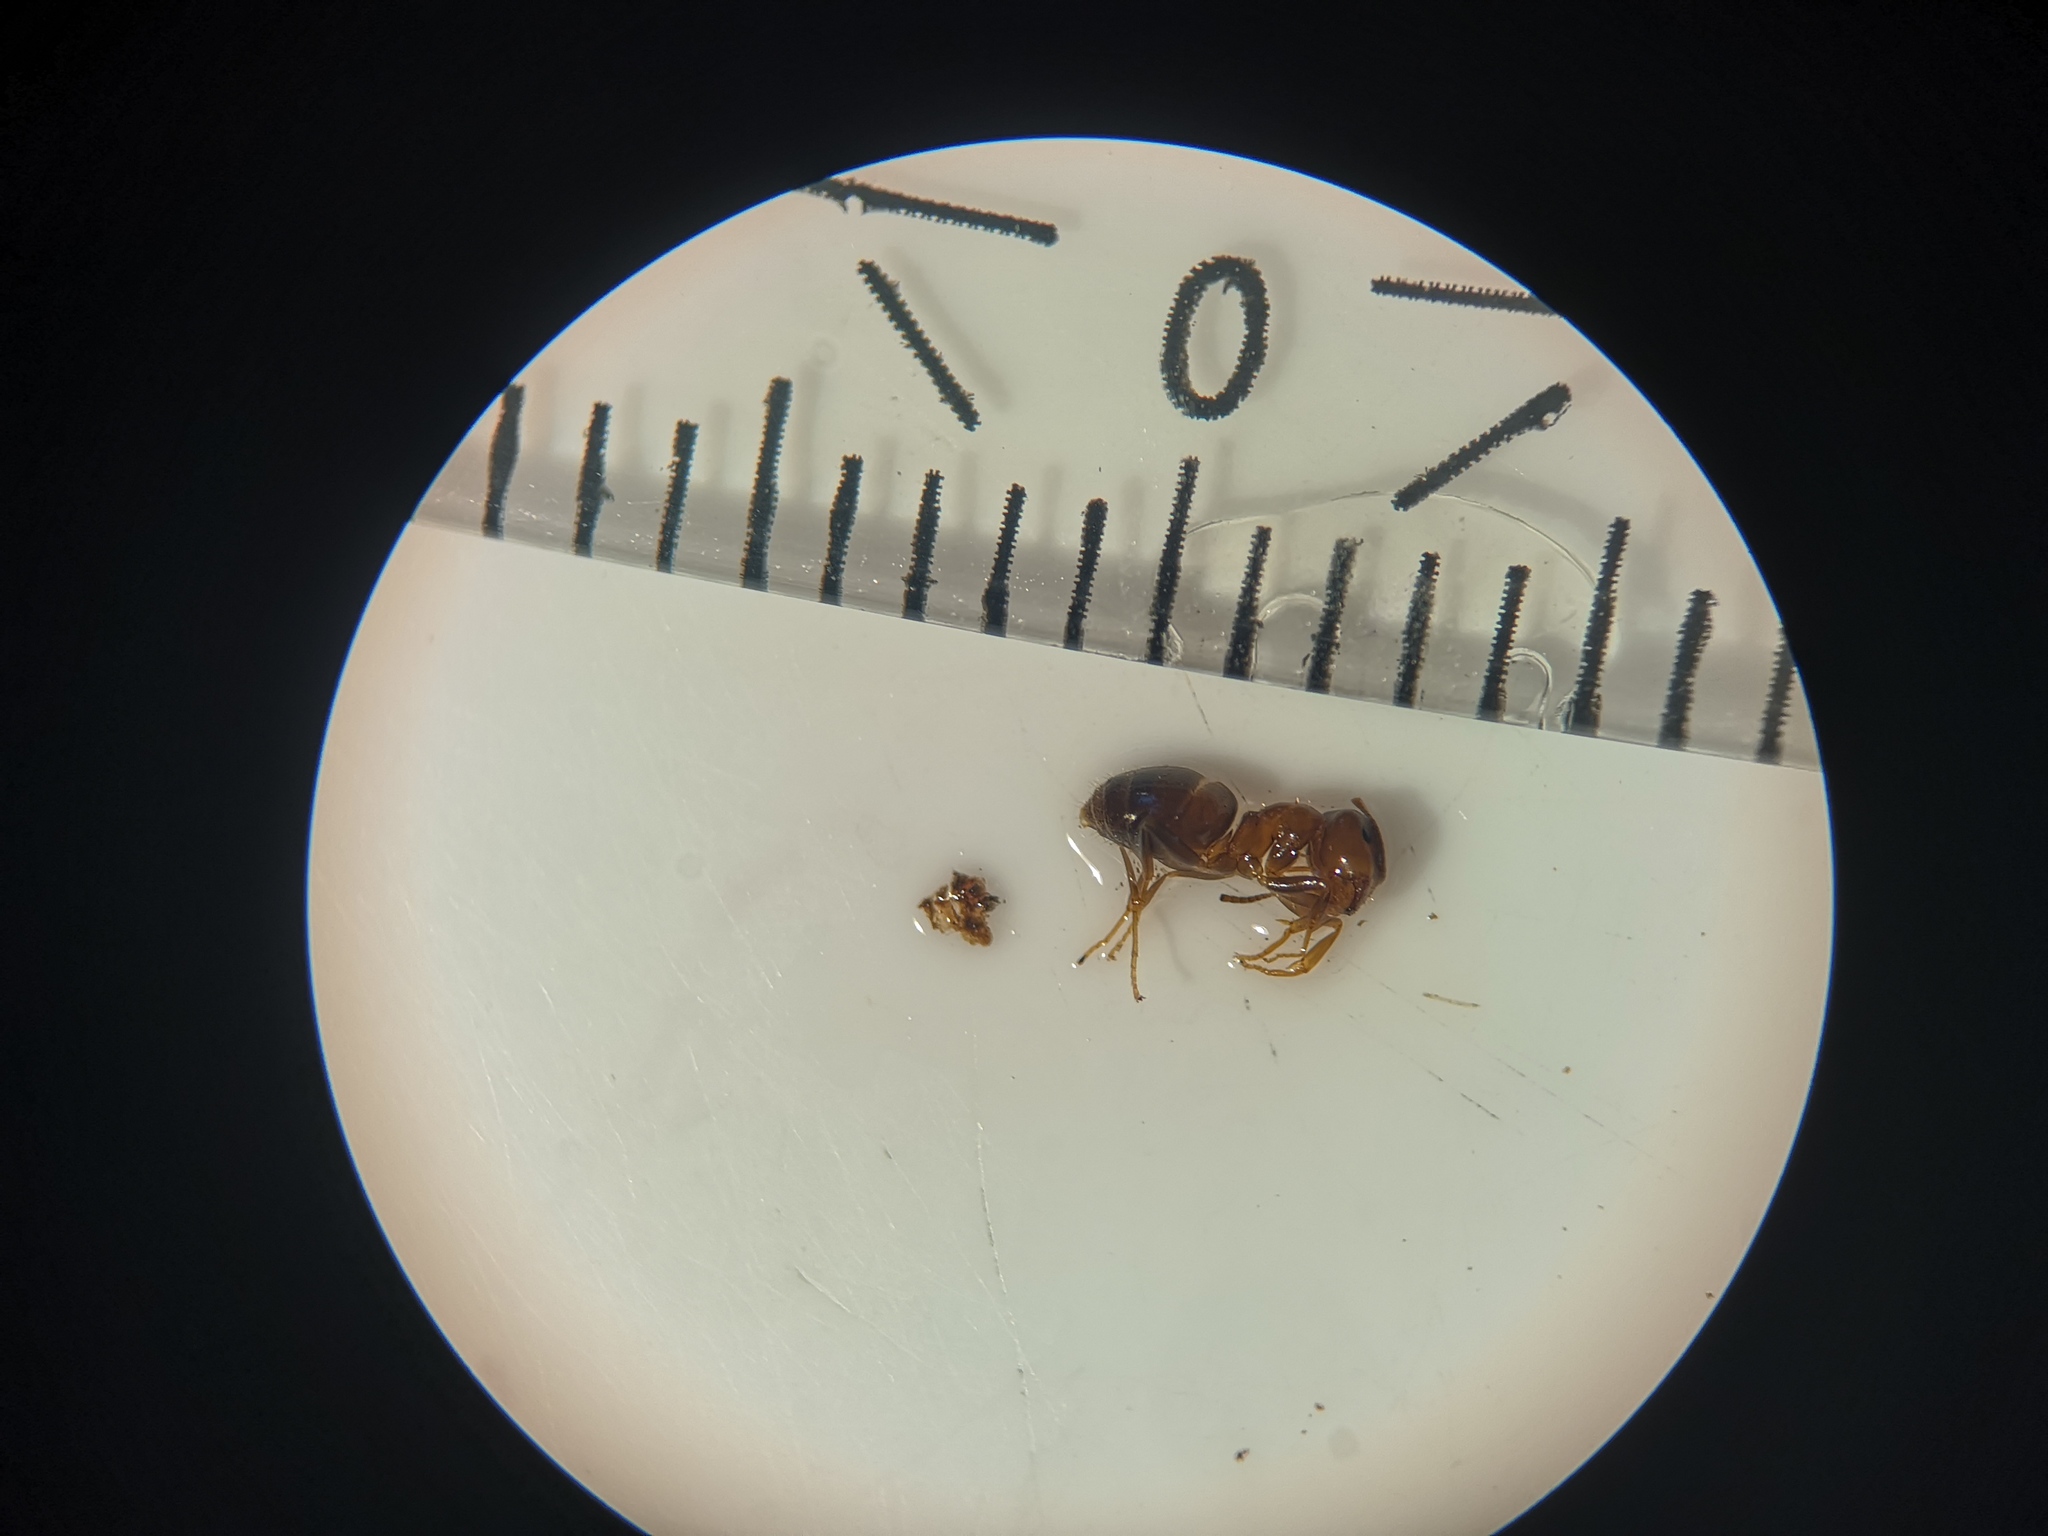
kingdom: Animalia
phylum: Arthropoda
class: Insecta
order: Hymenoptera
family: Formicidae
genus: Lasius
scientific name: Lasius brunneus
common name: Brown ant
